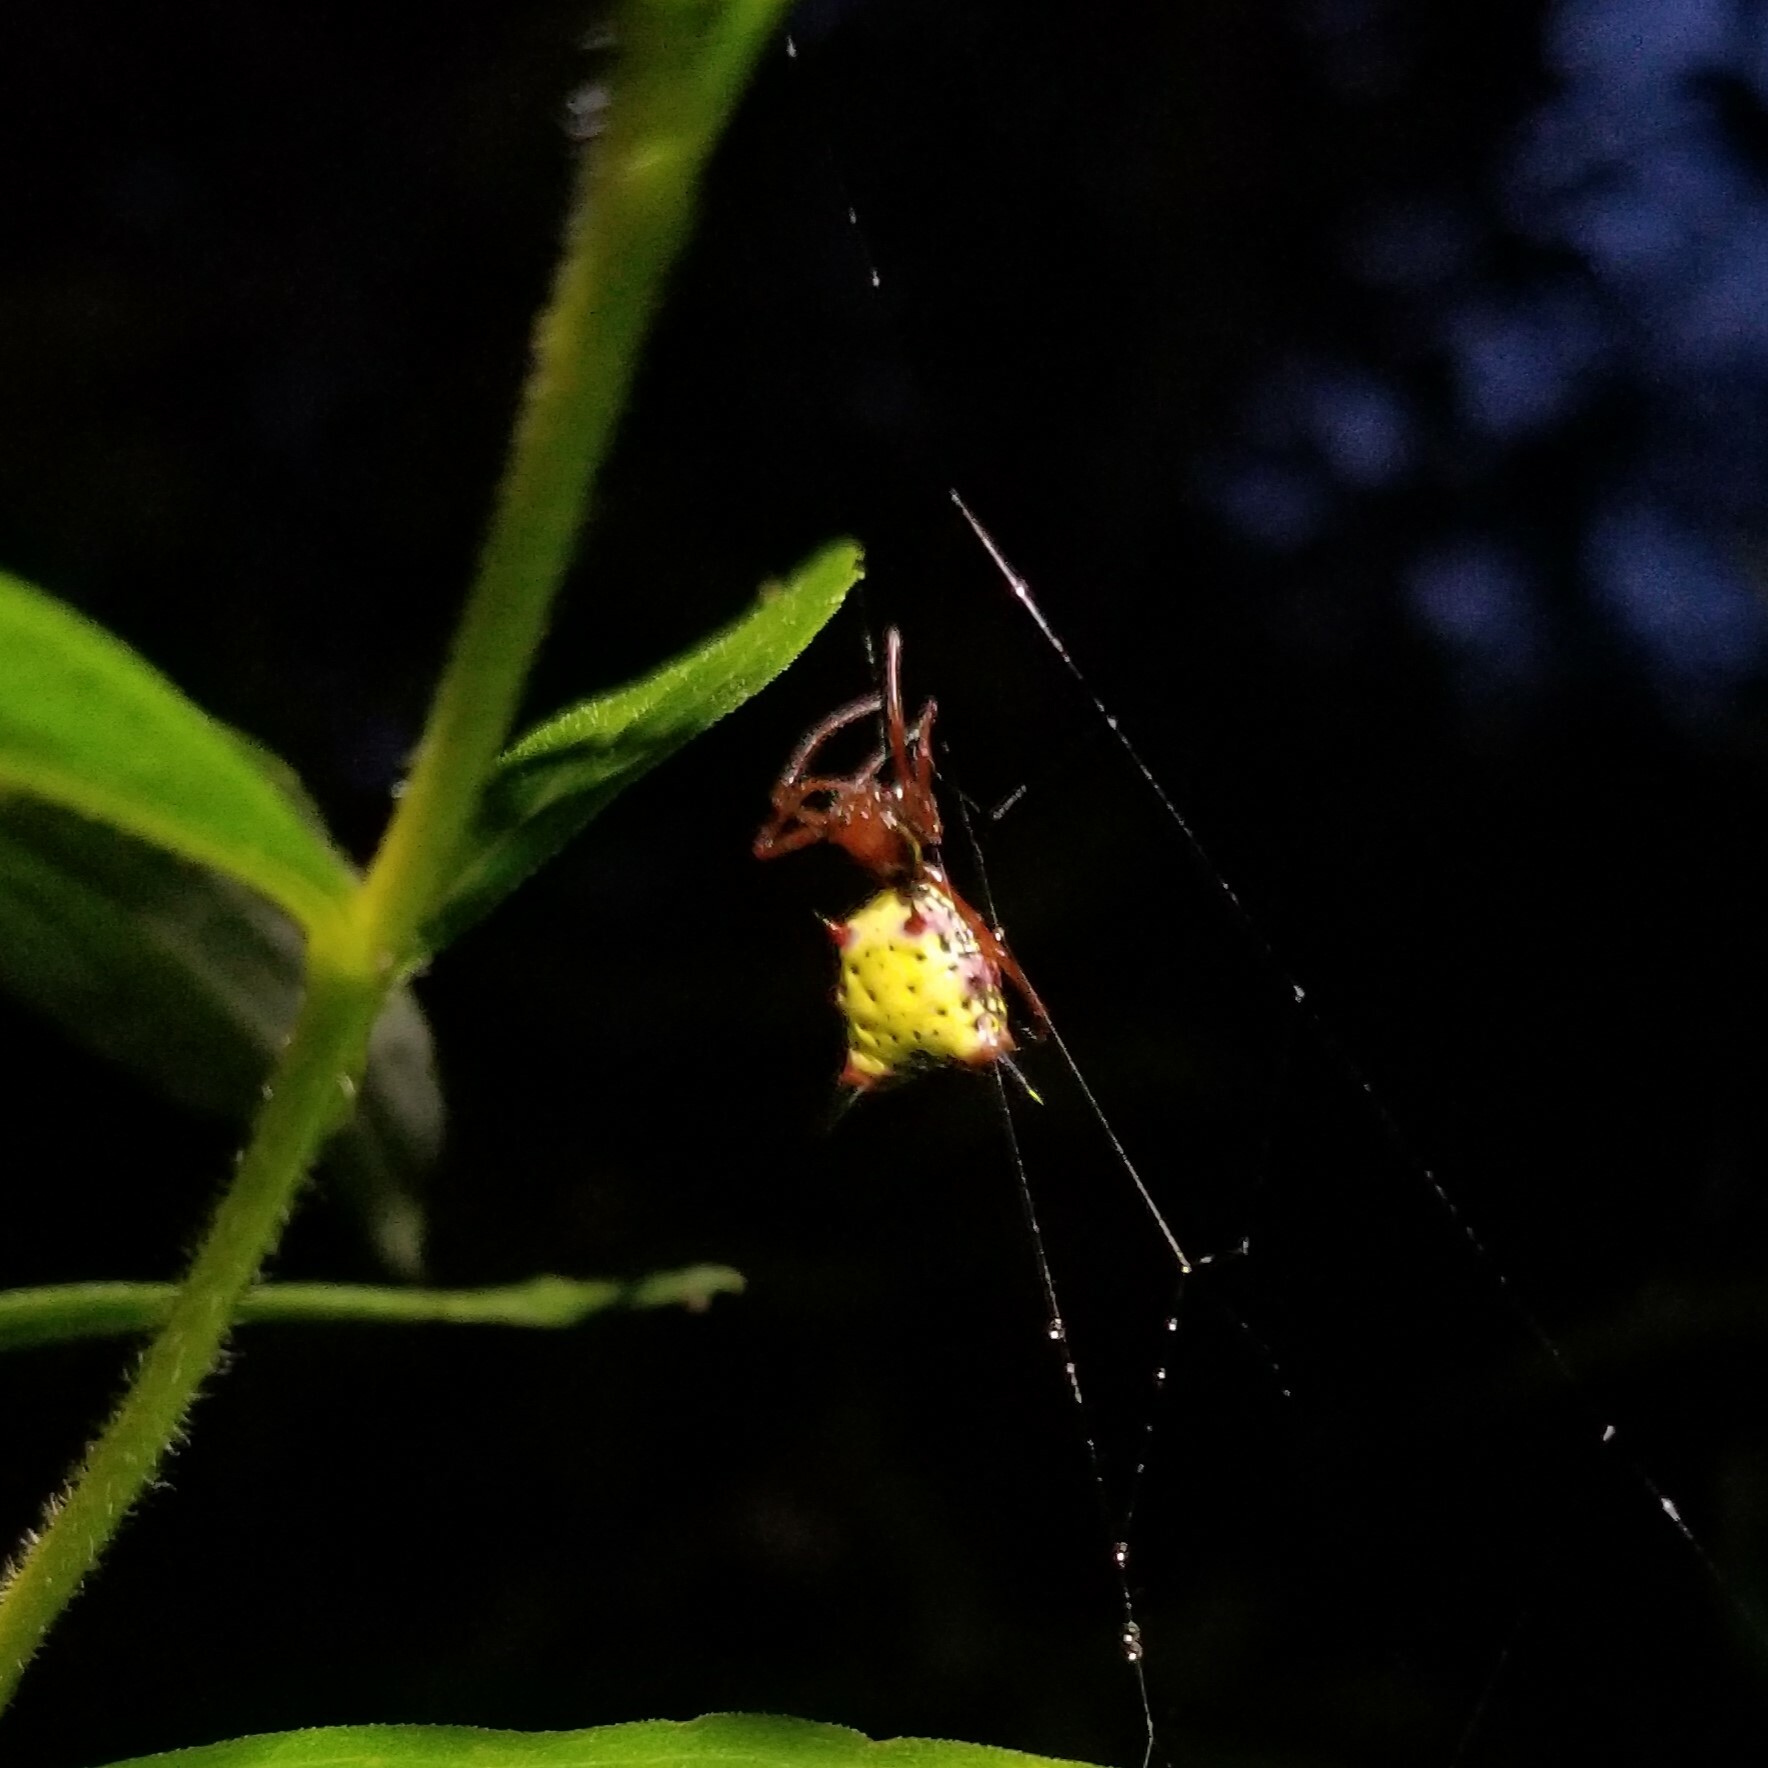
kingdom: Animalia
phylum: Arthropoda
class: Arachnida
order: Araneae
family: Araneidae
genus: Micrathena
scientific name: Micrathena sagittata
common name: Orb weavers
